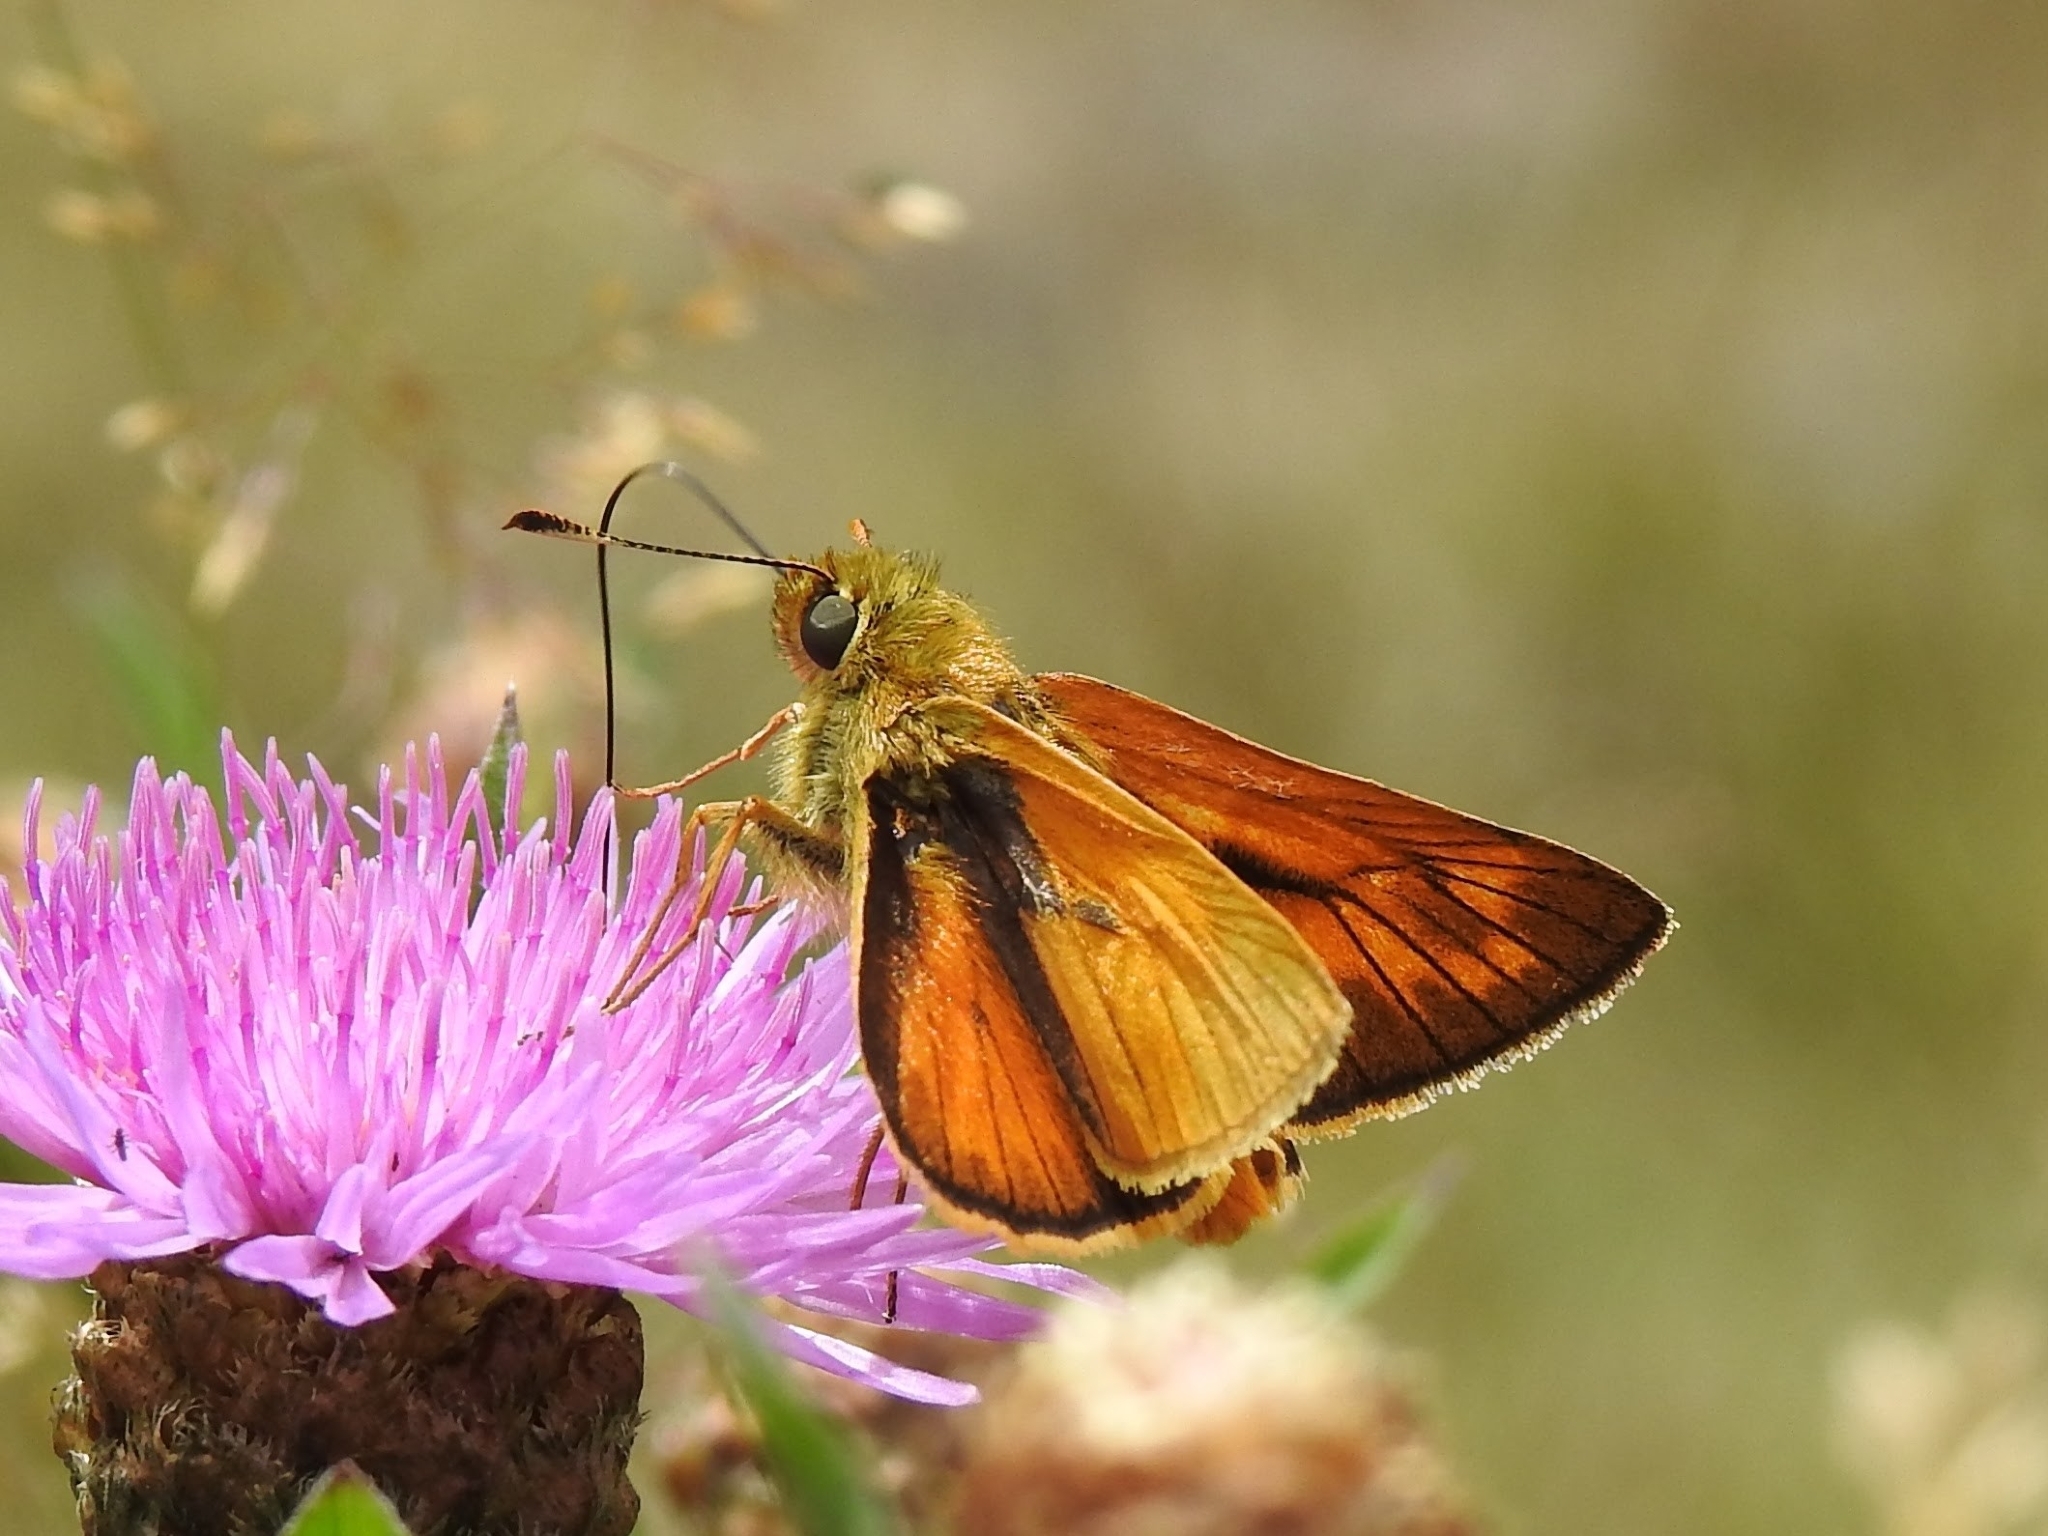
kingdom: Animalia
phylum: Arthropoda
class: Insecta
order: Lepidoptera
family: Hesperiidae
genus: Ochlodes
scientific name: Ochlodes venata
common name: Large skipper
